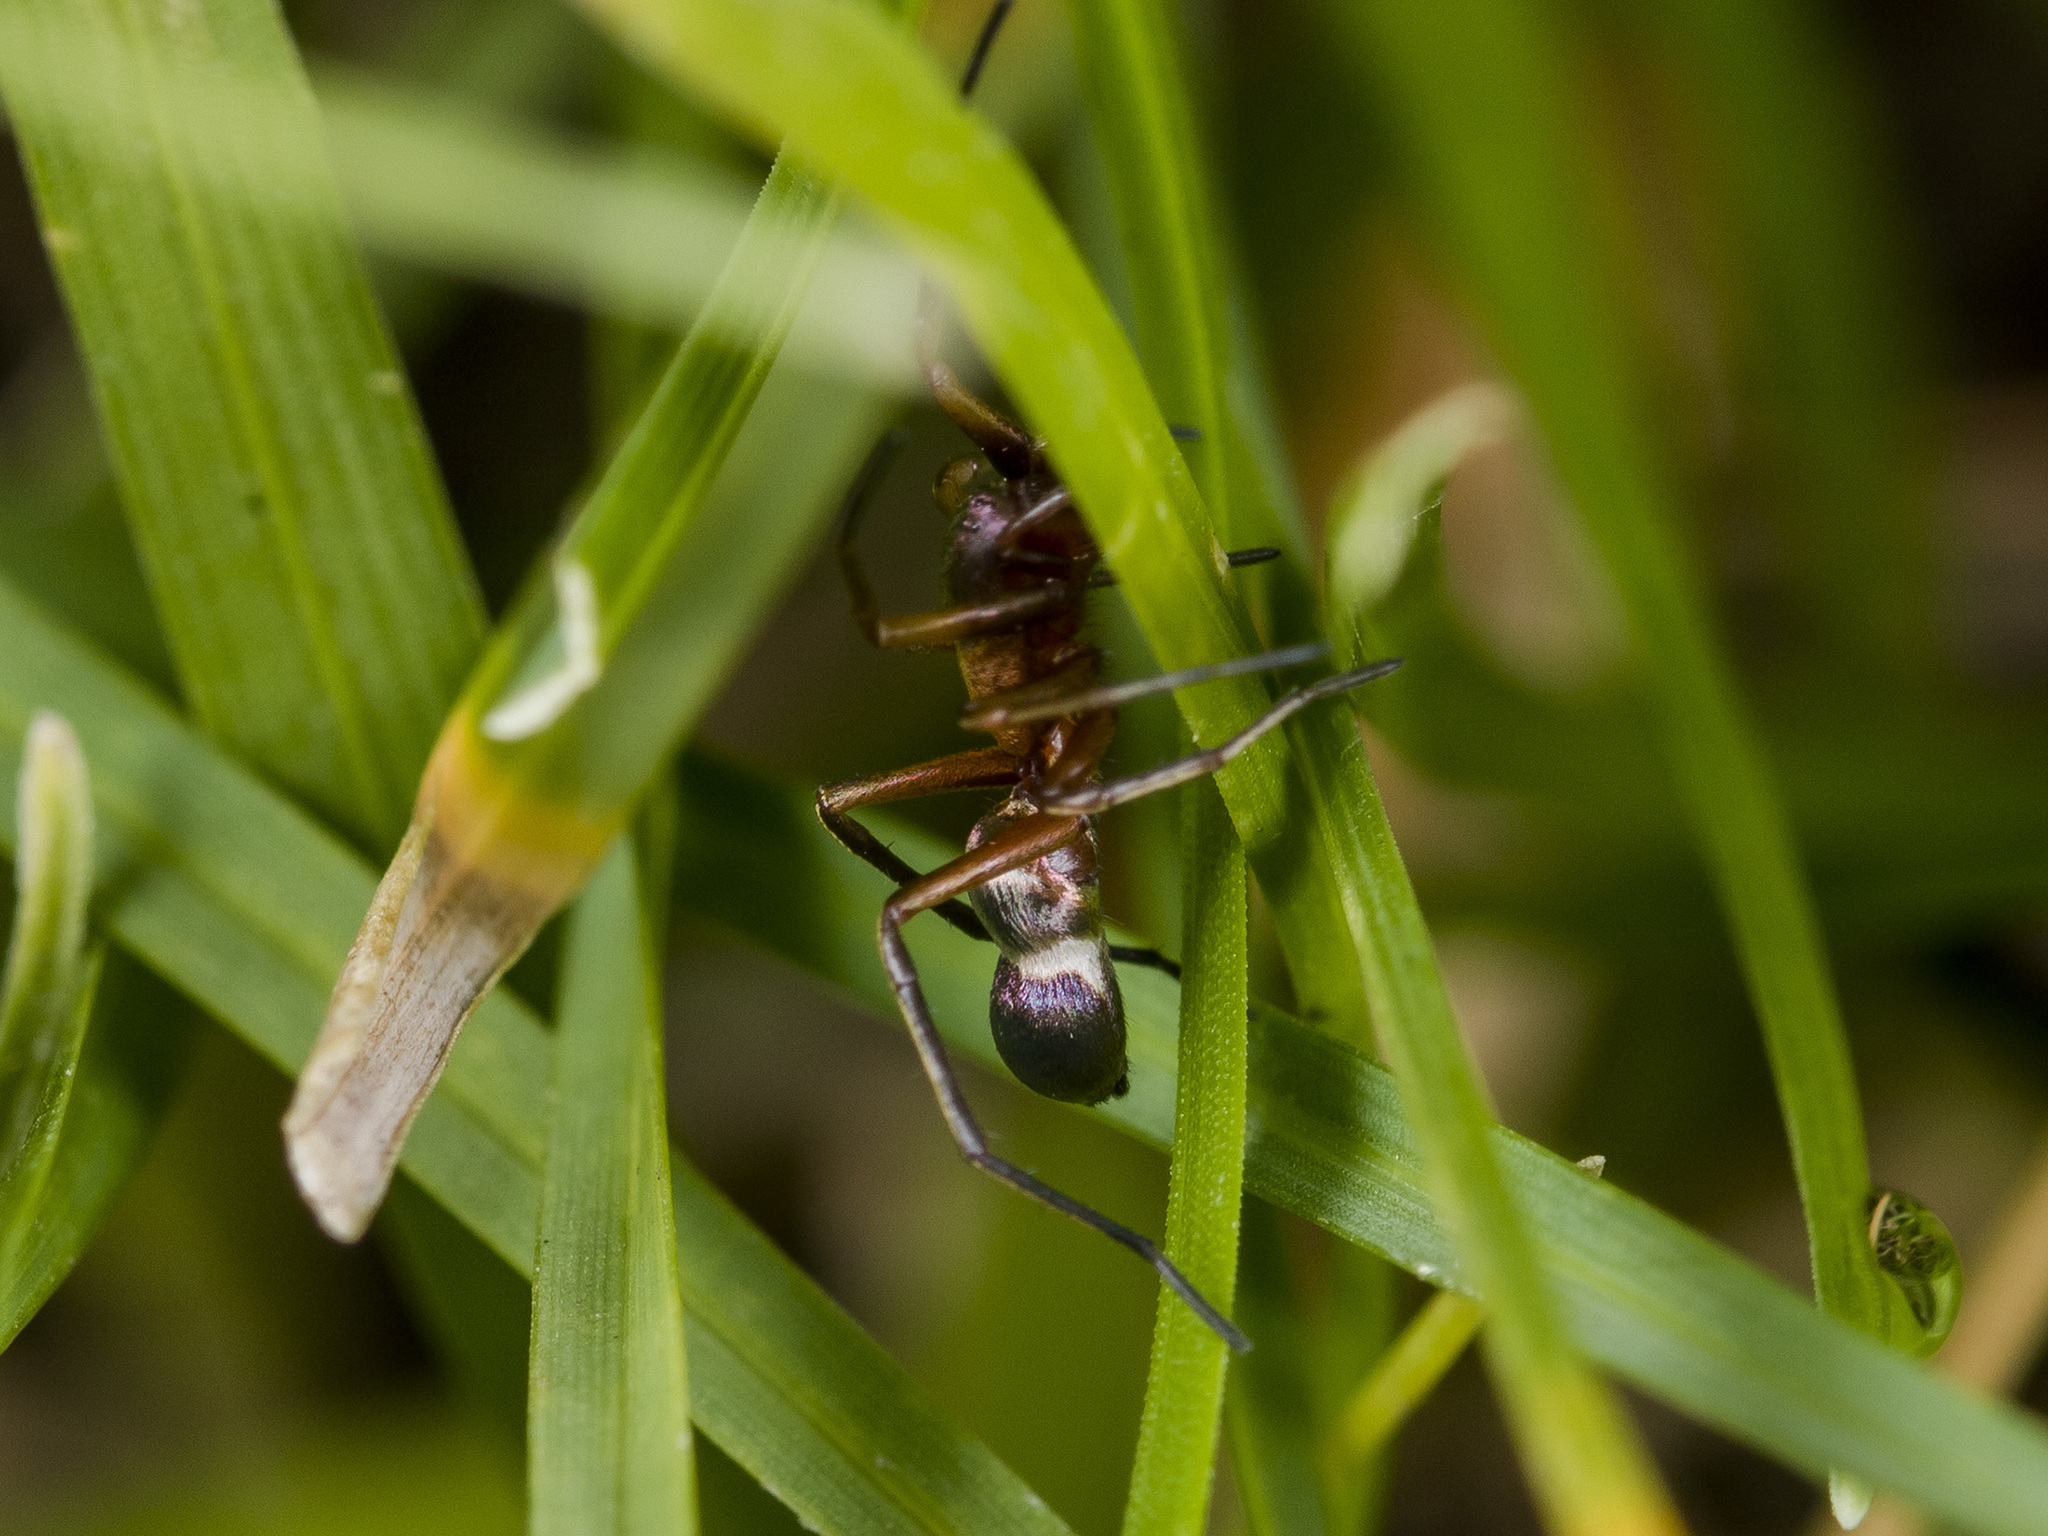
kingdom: Animalia
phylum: Arthropoda
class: Arachnida
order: Araneae
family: Gnaphosidae
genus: Micaria
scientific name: Micaria formicaria
